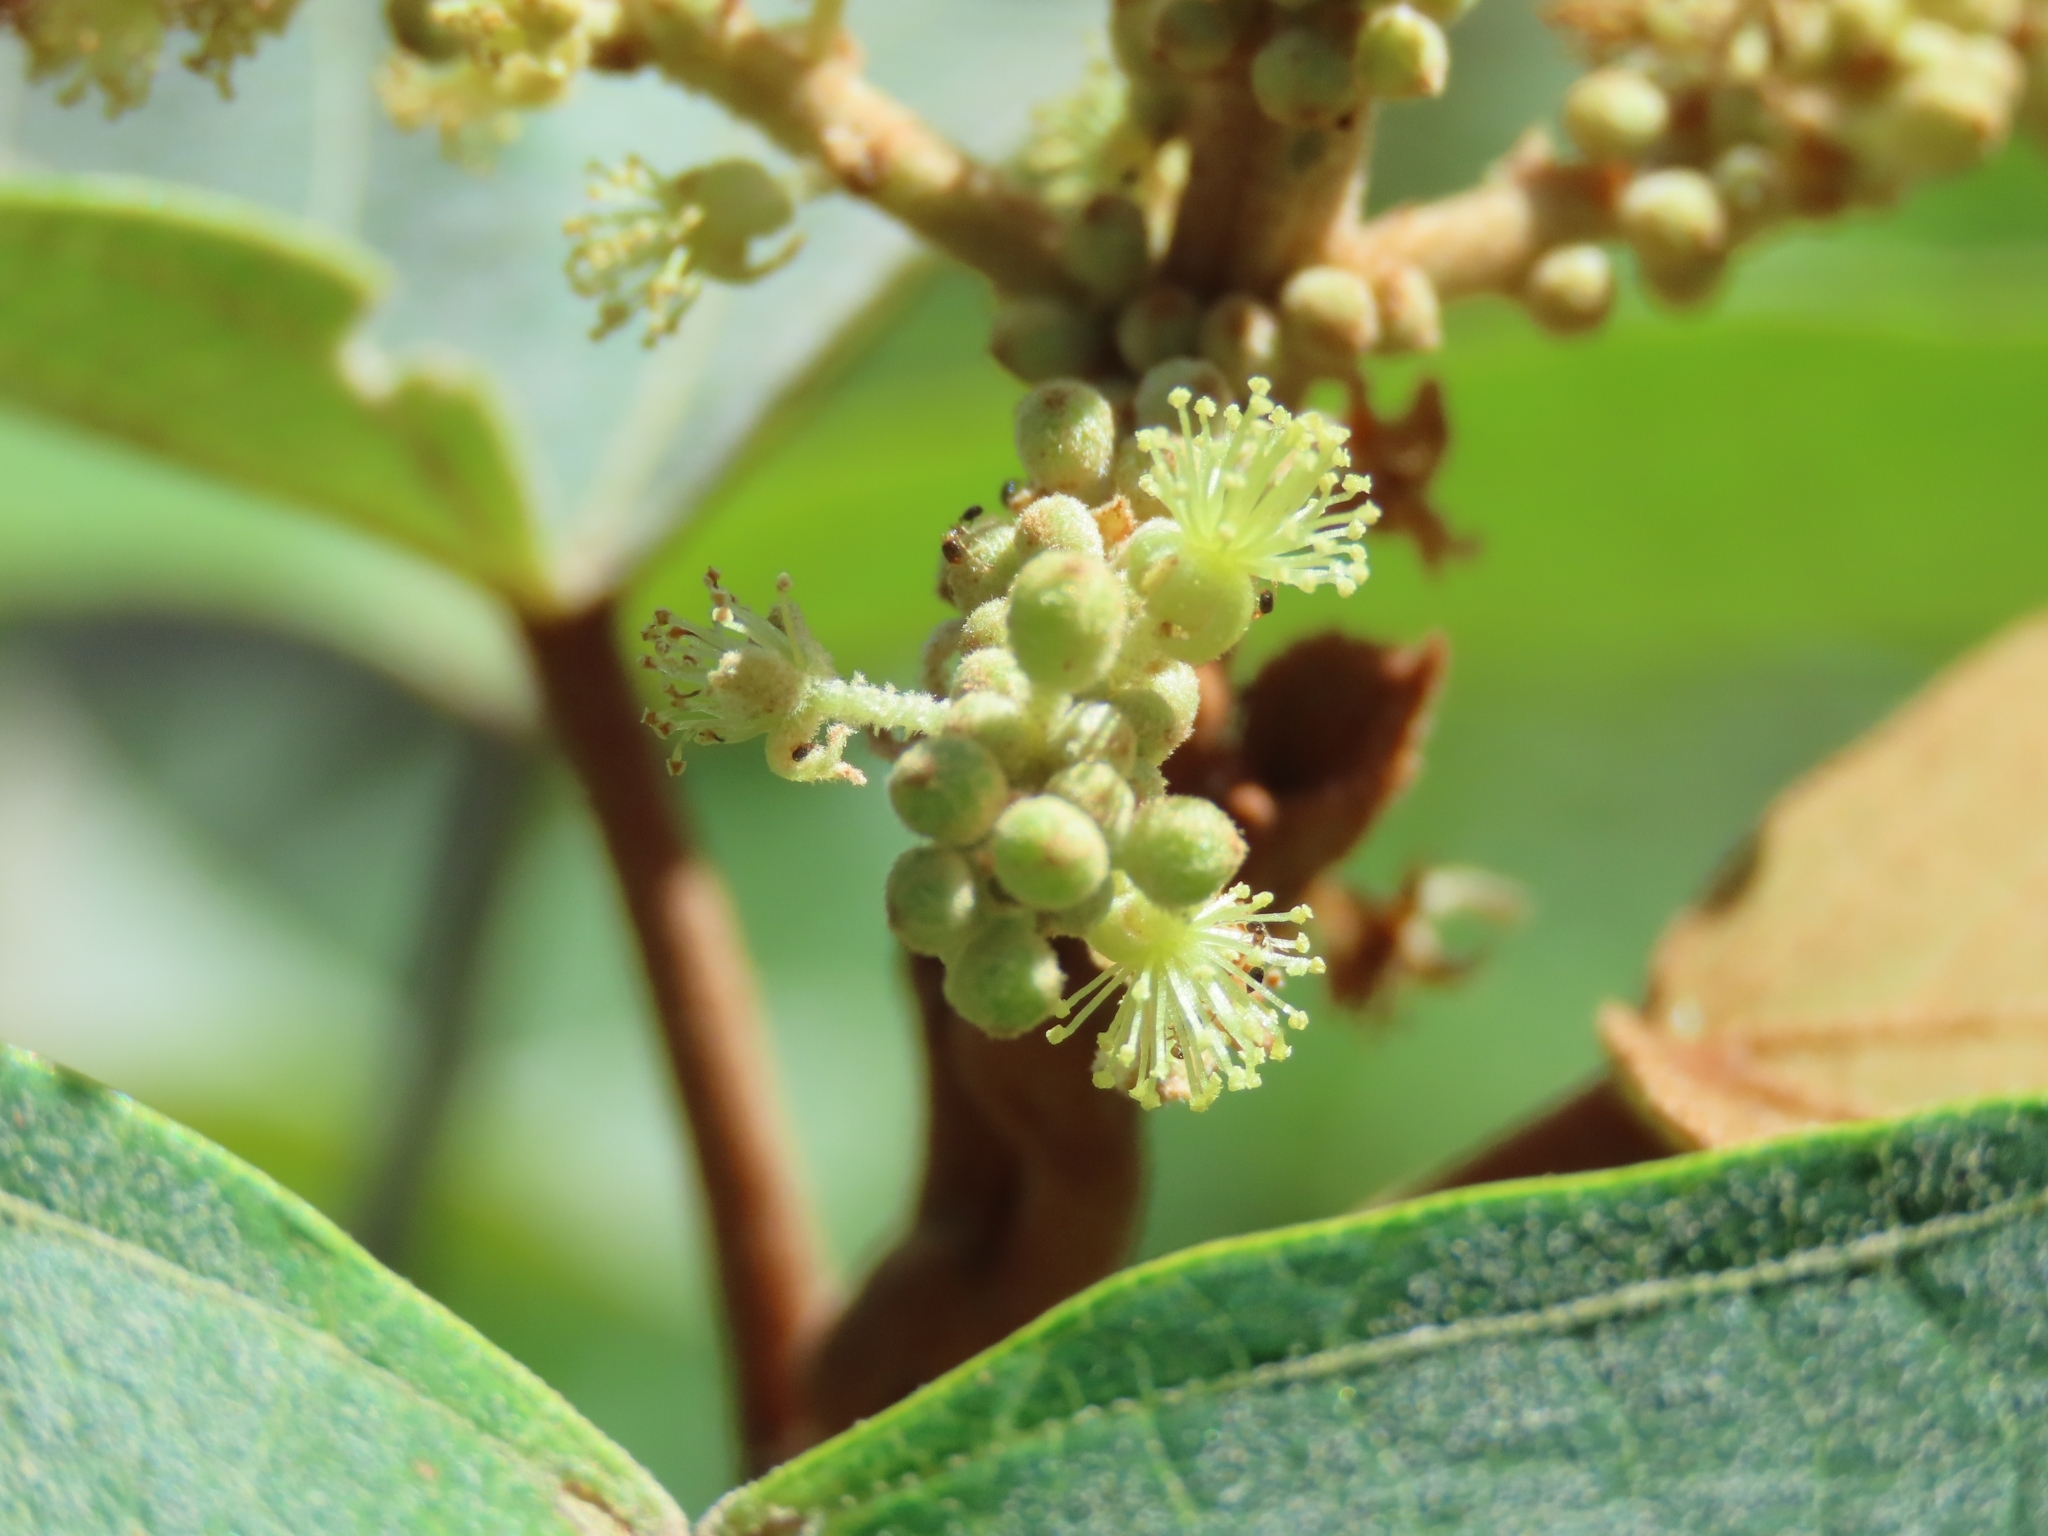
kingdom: Plantae
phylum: Tracheophyta
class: Magnoliopsida
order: Malpighiales
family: Euphorbiaceae
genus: Mallotus
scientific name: Mallotus japonicus
